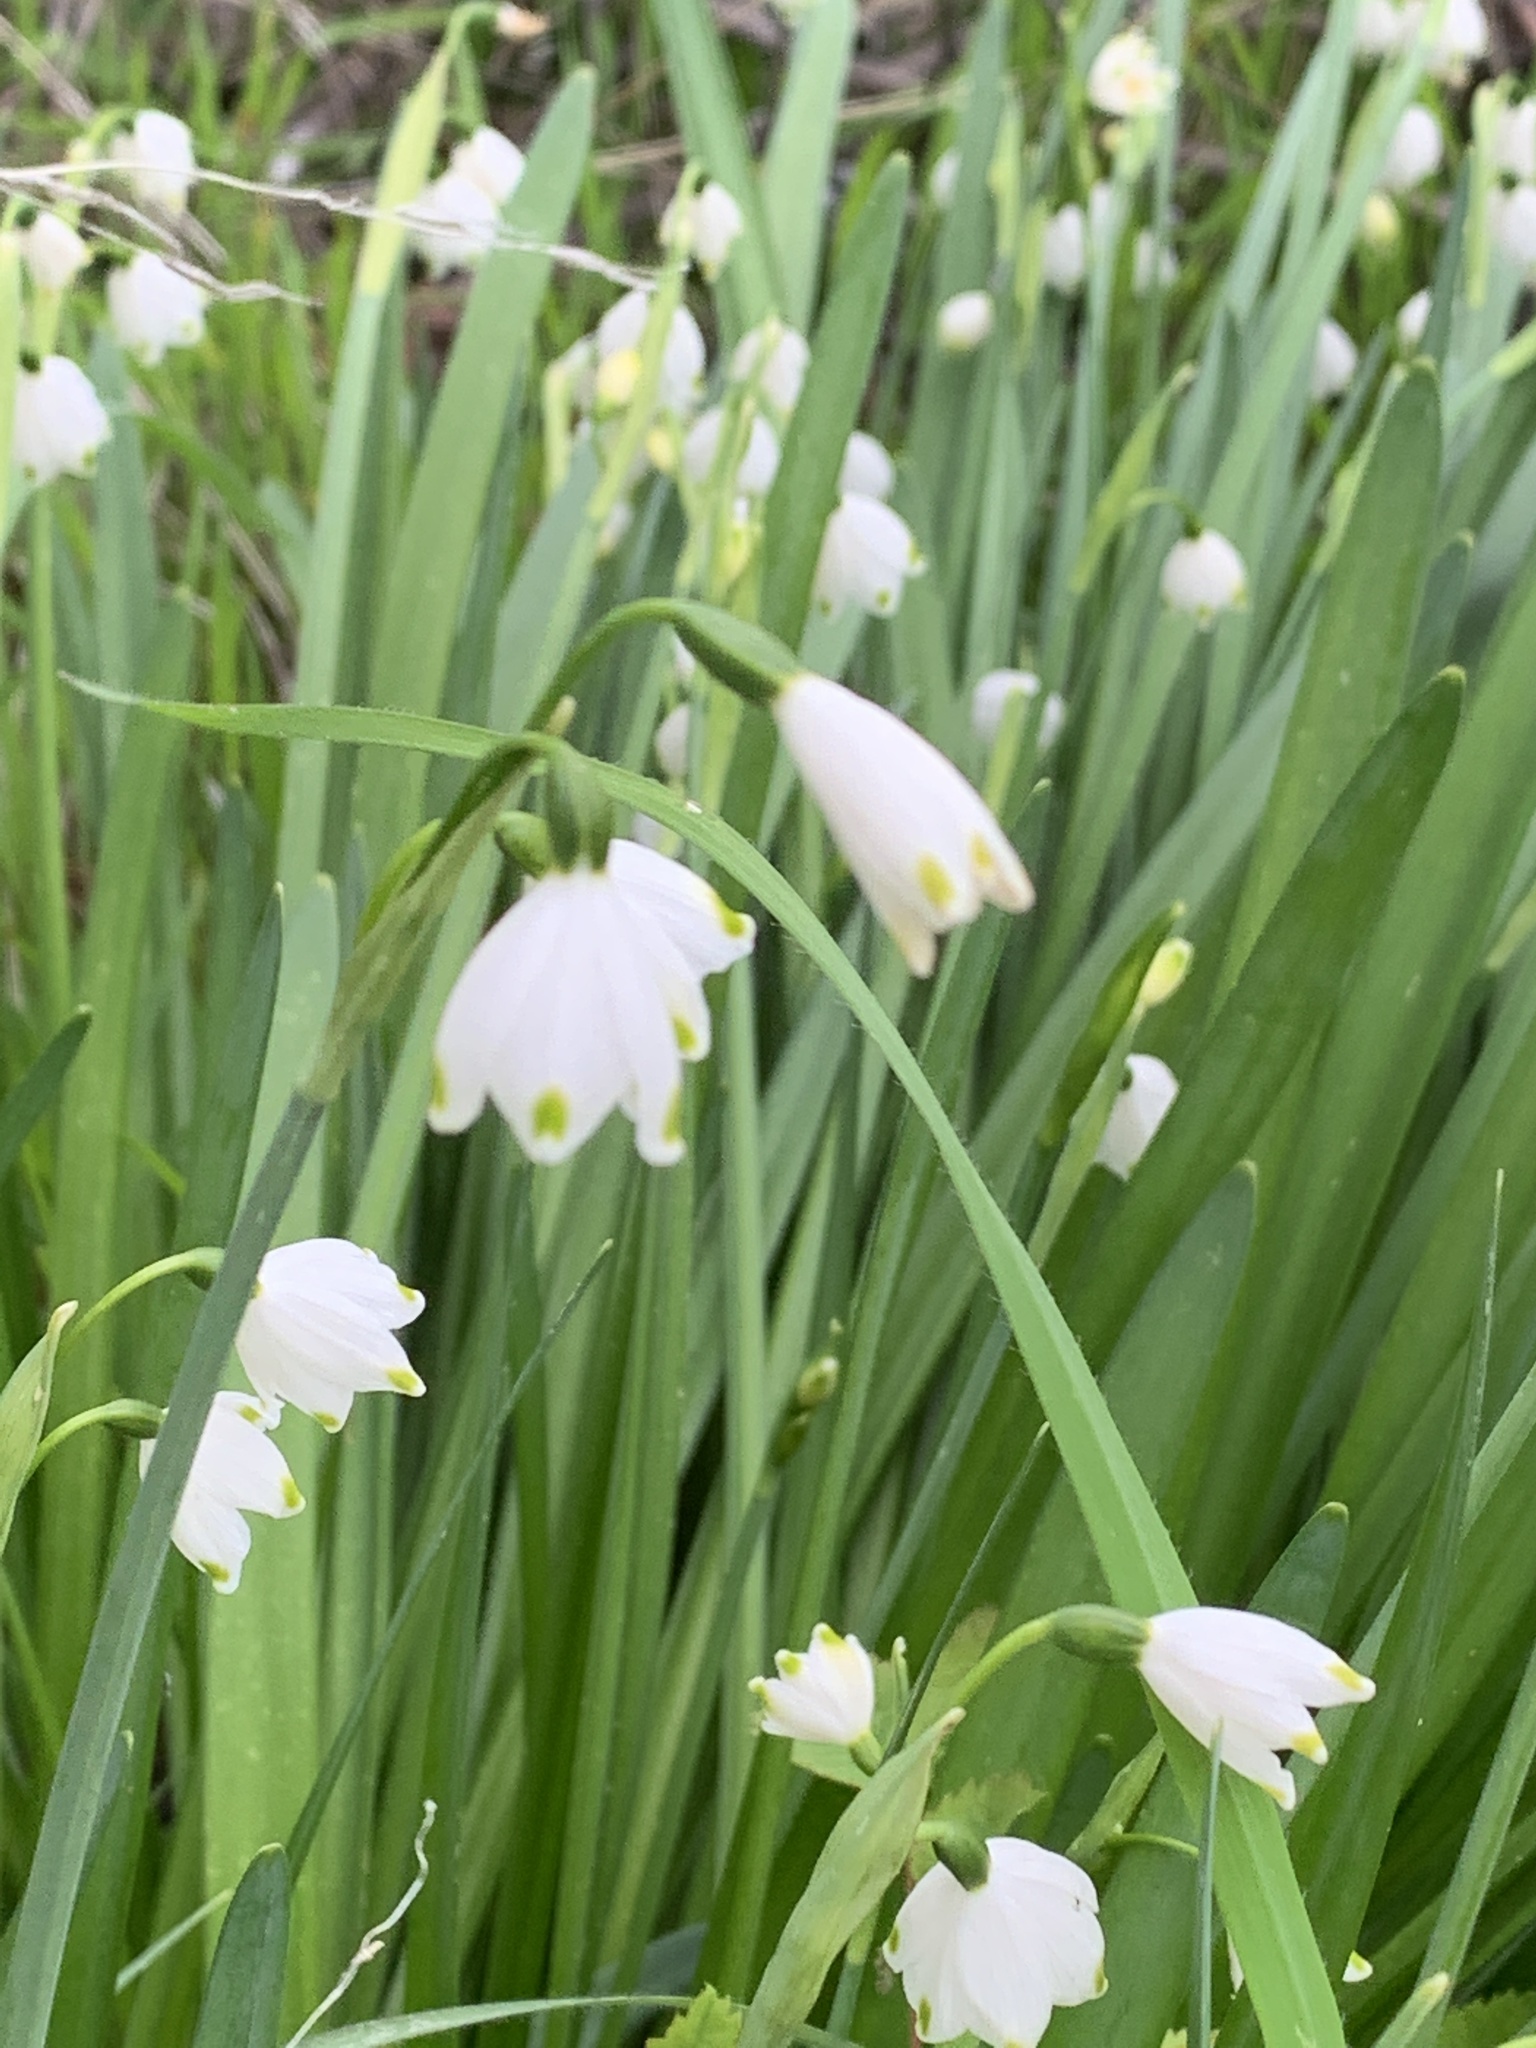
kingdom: Plantae
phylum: Tracheophyta
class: Liliopsida
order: Asparagales
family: Amaryllidaceae
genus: Leucojum
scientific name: Leucojum aestivum
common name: Summer snowflake
